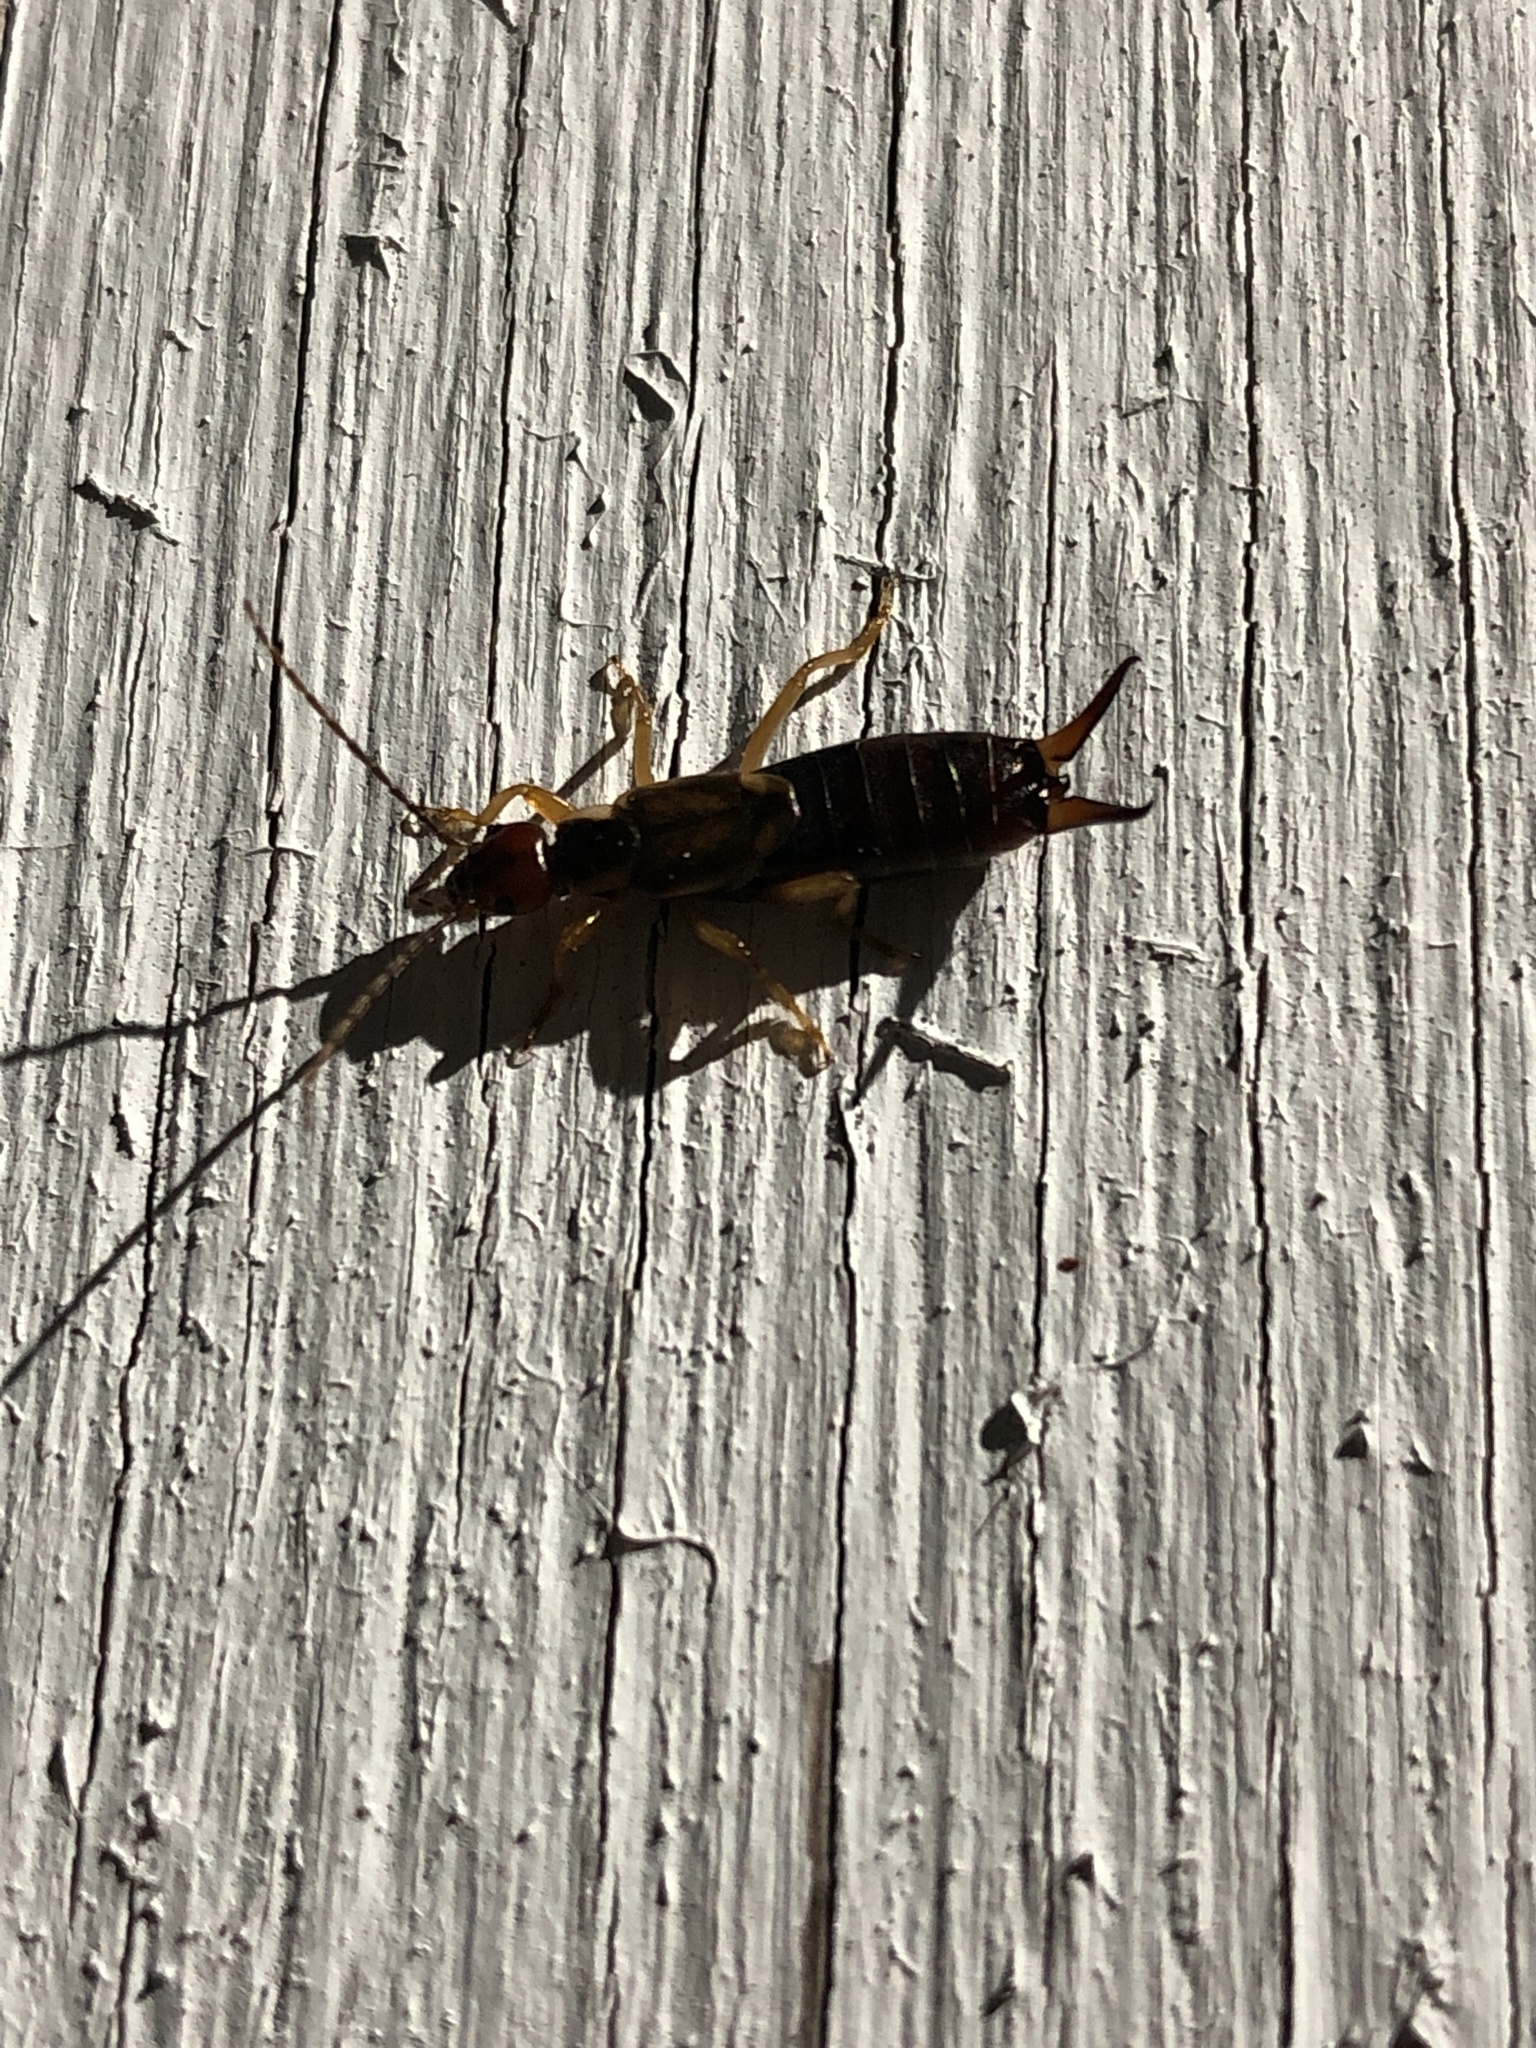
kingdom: Animalia
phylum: Arthropoda
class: Insecta
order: Dermaptera
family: Forficulidae
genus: Forficula
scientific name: Forficula
